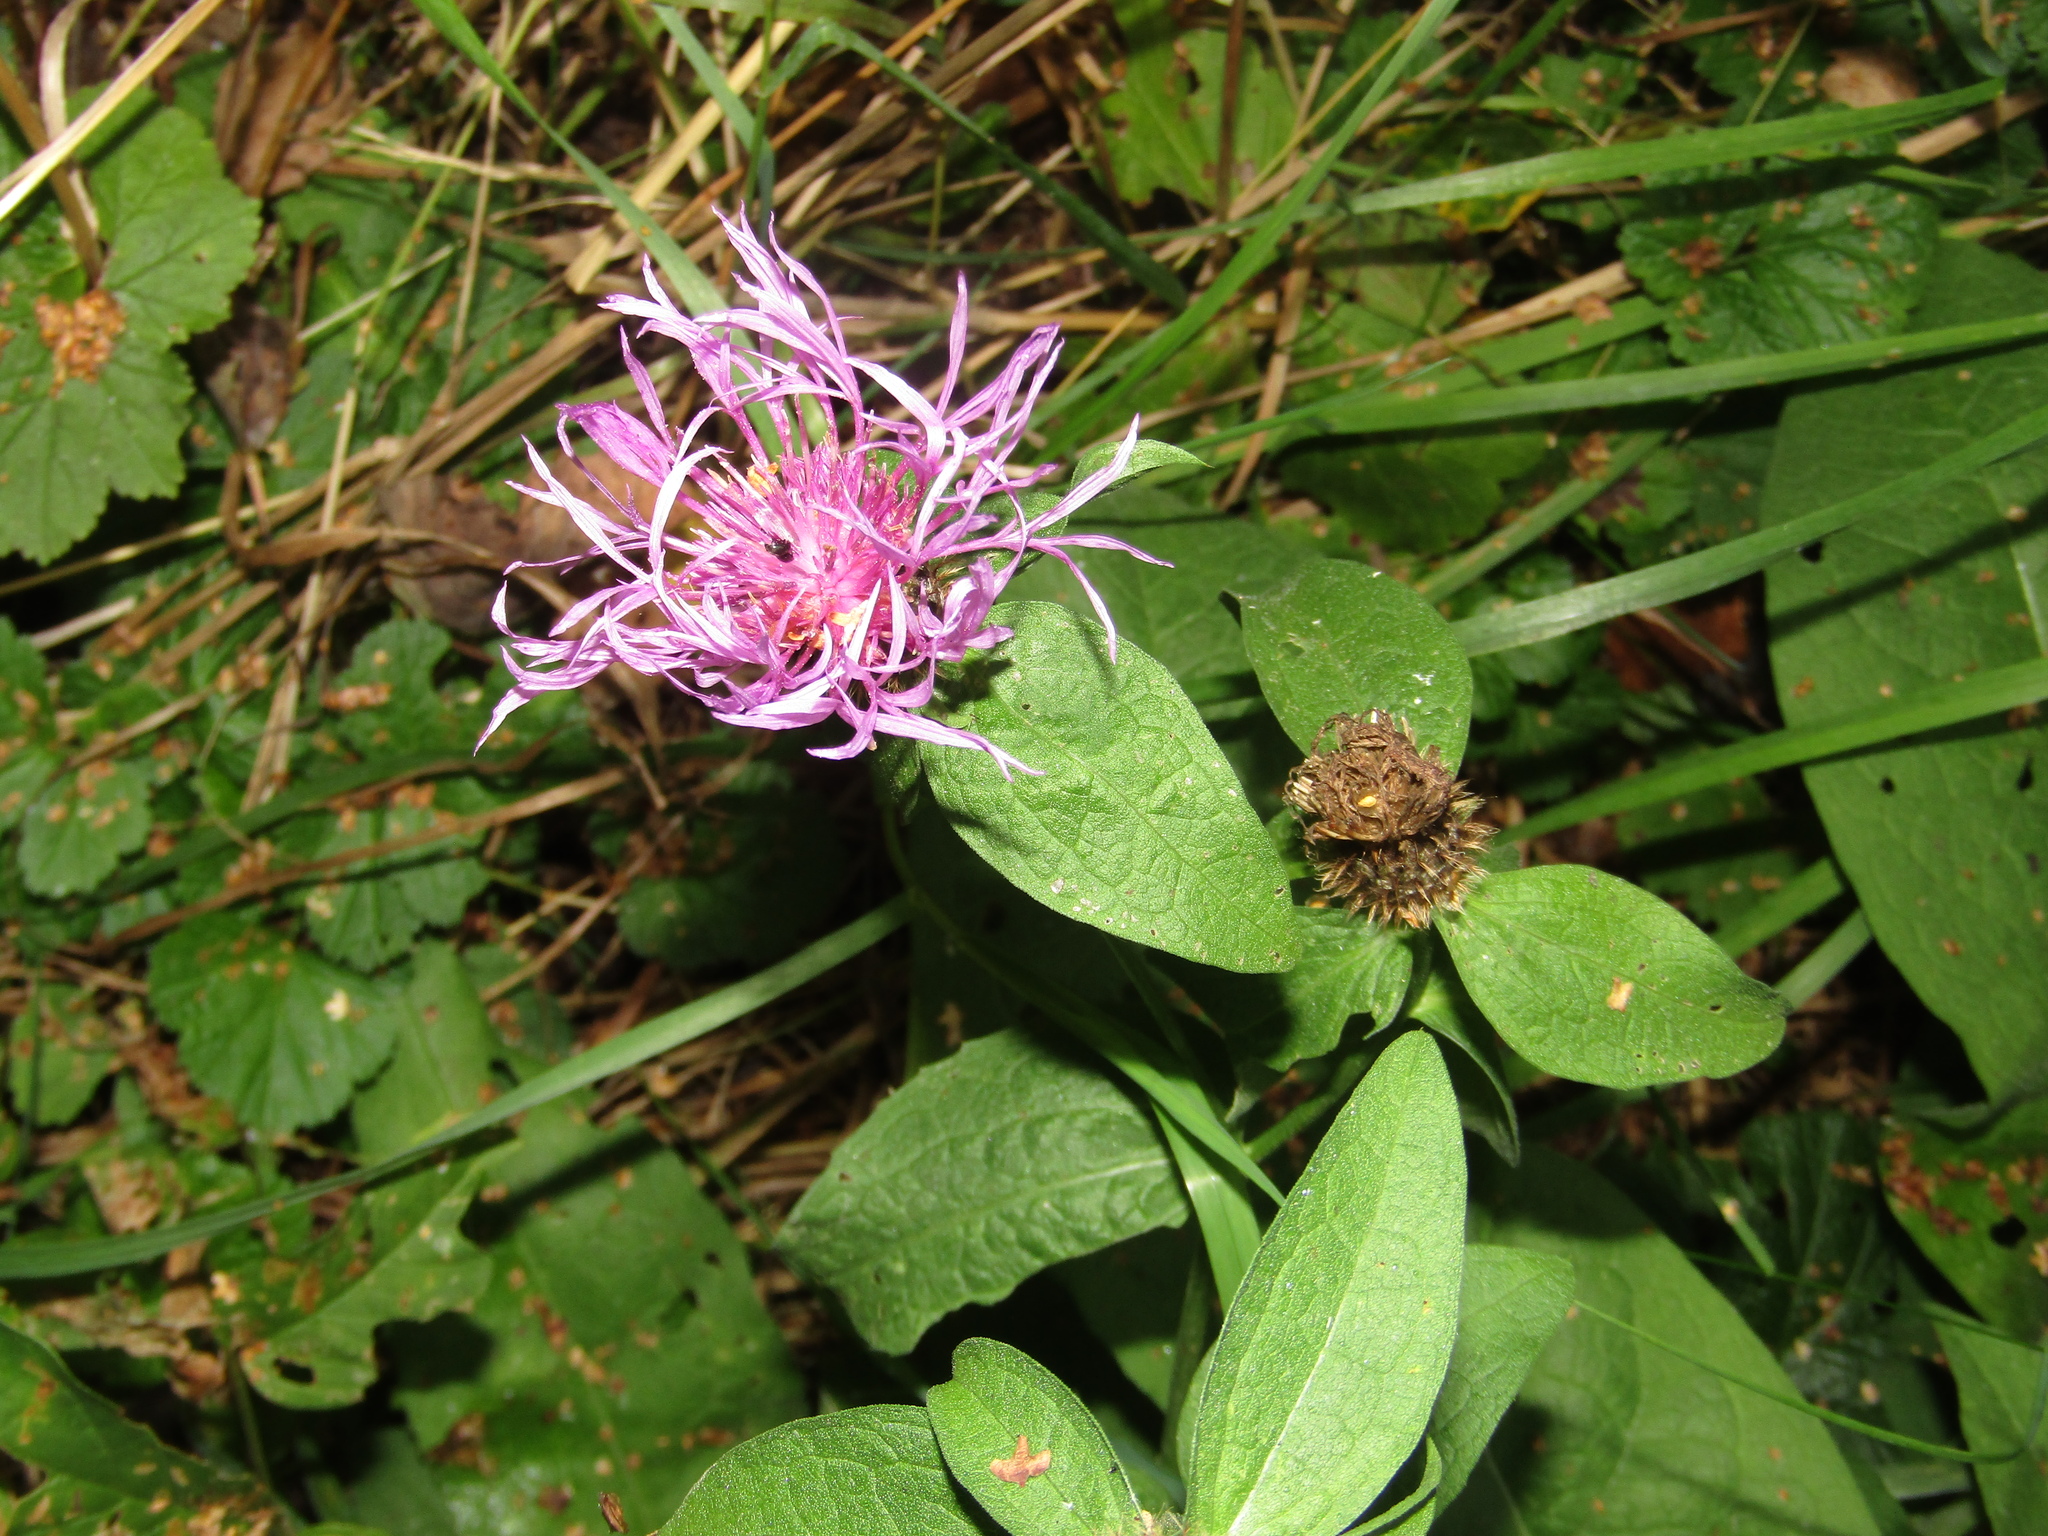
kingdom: Plantae
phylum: Tracheophyta
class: Magnoliopsida
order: Asterales
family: Asteraceae
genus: Centaurea
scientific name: Centaurea phrygia
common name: Wig knapweed
